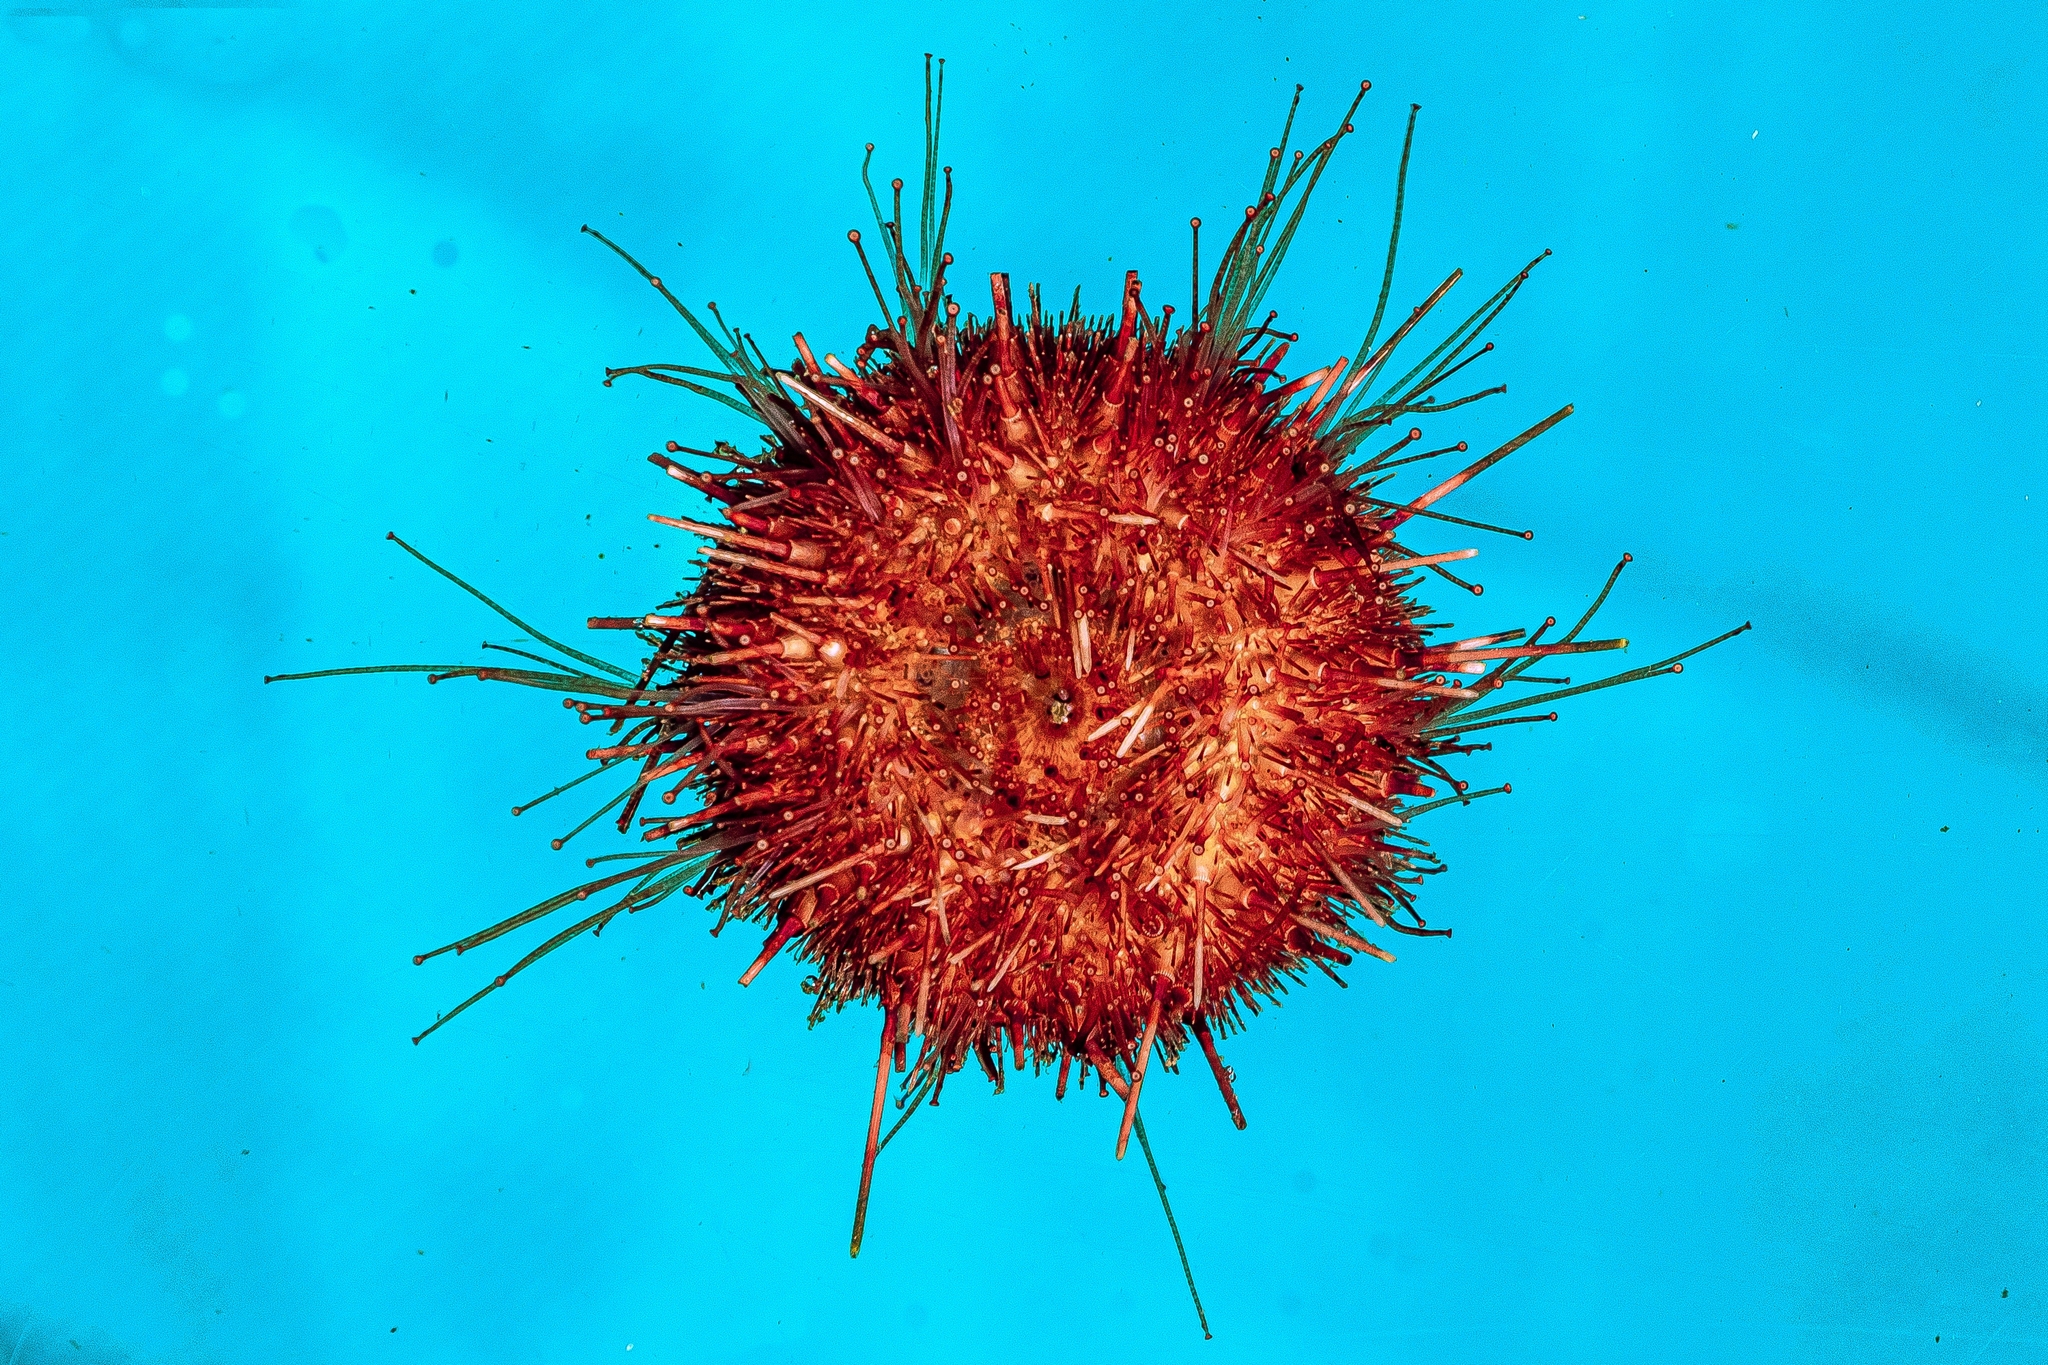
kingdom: Animalia
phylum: Echinodermata
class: Echinoidea
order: Camarodonta
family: Echinidae
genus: Sterechinus
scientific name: Sterechinus neumayeri
